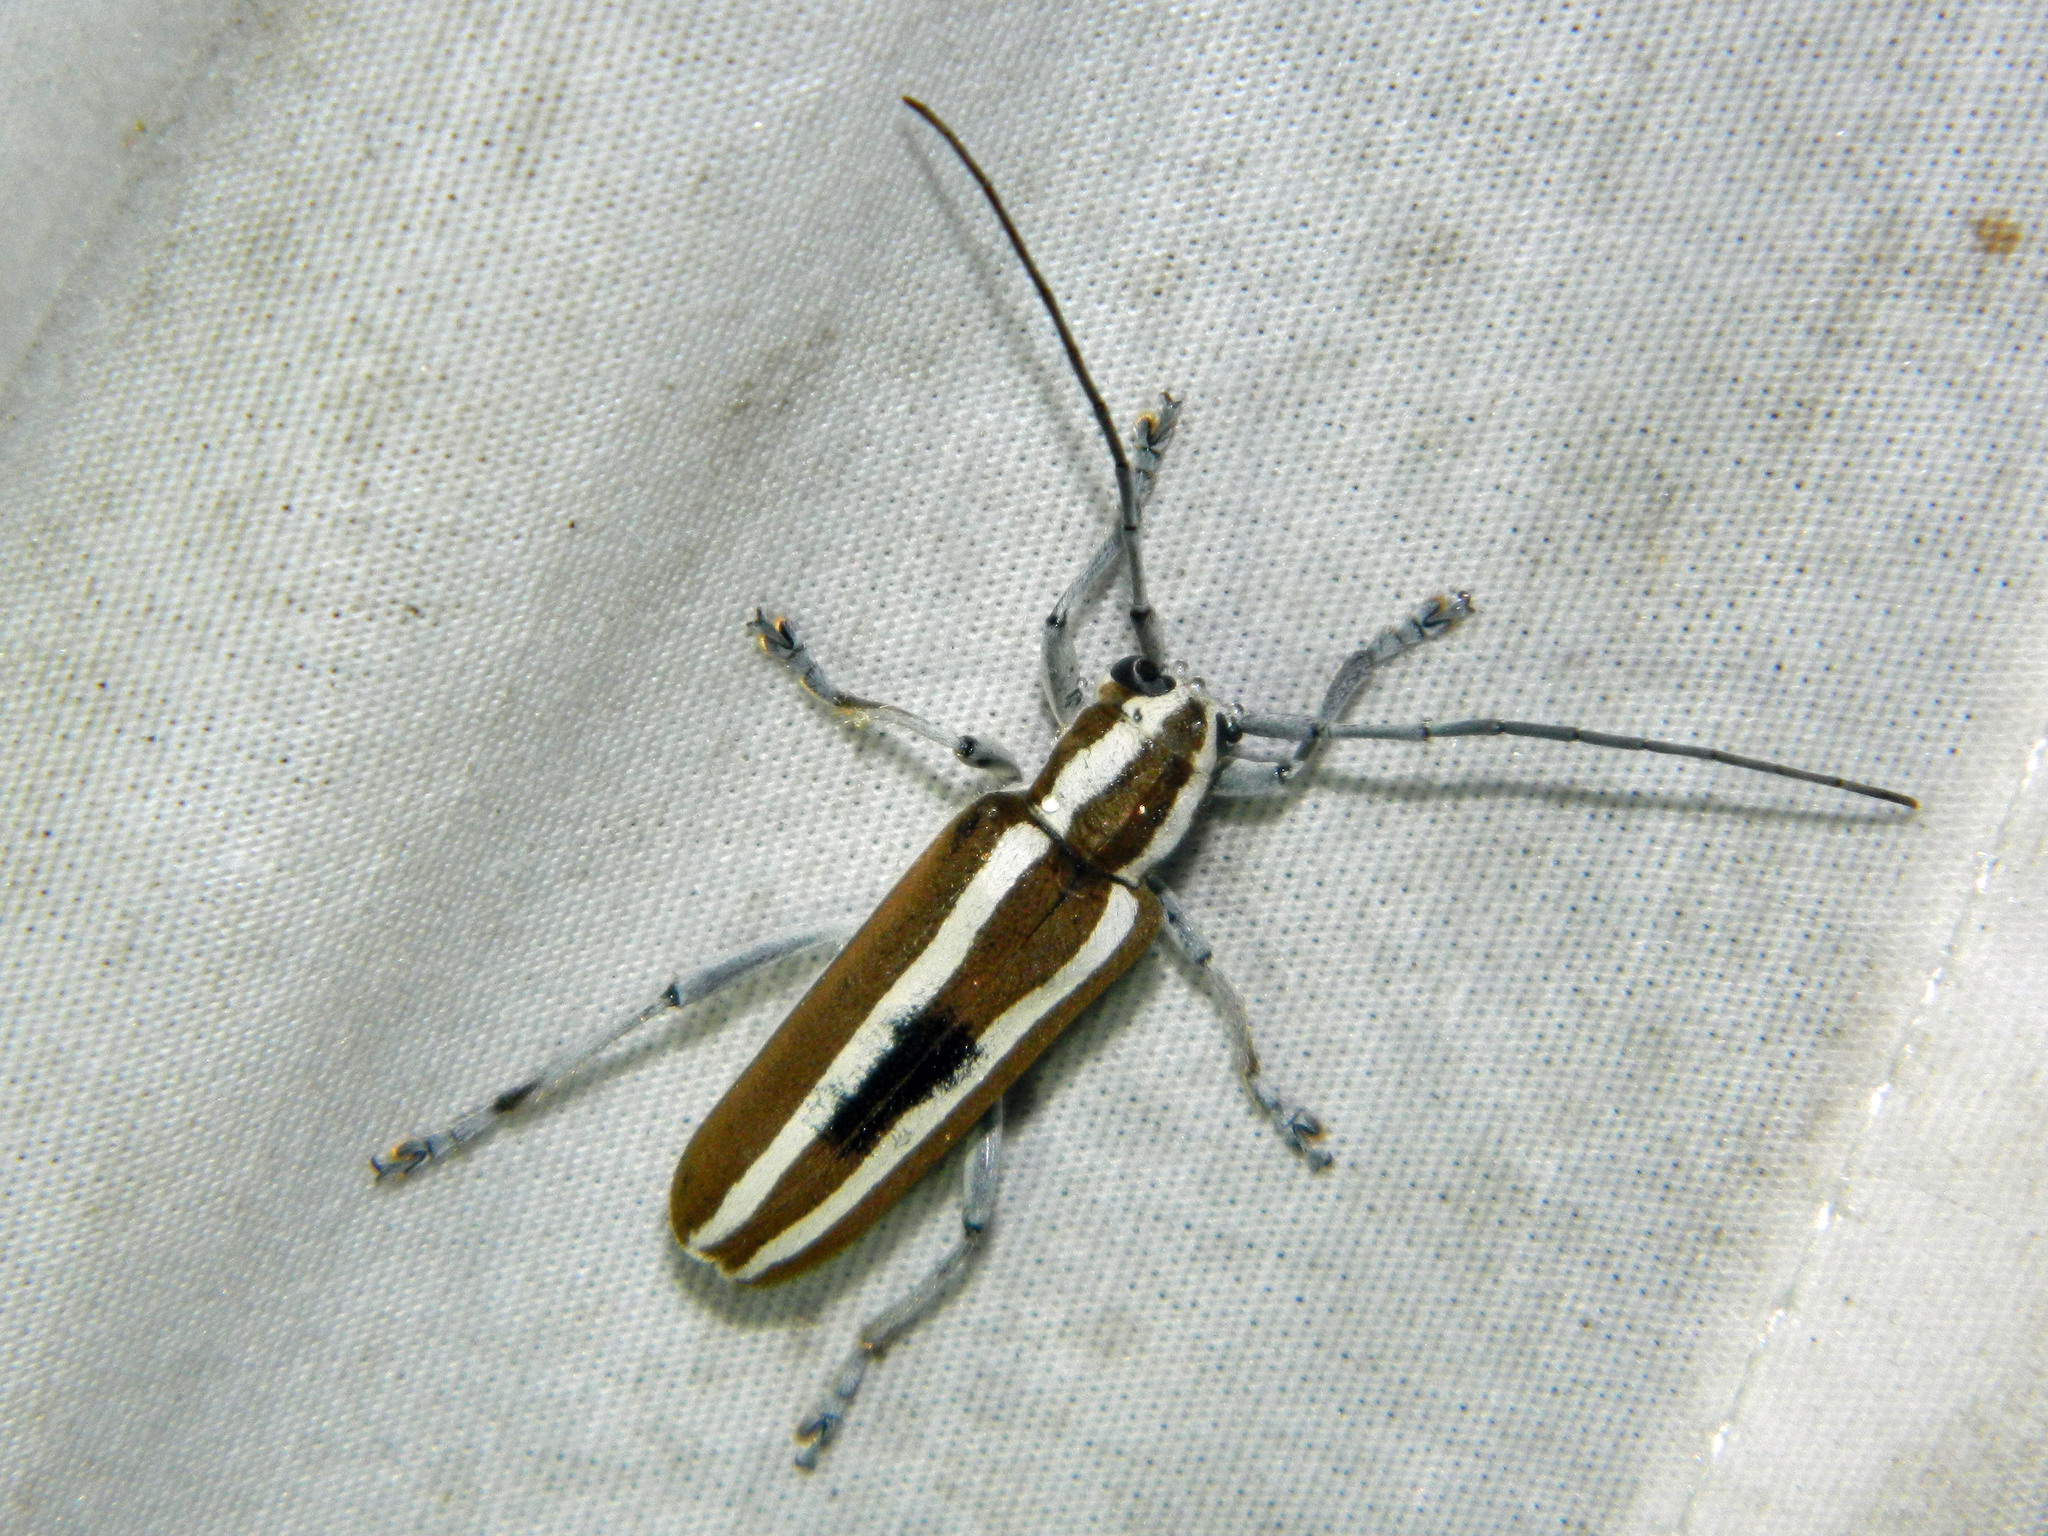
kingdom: Animalia
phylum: Arthropoda
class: Insecta
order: Coleoptera
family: Cerambycidae
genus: Saperda
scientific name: Saperda candida
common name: Round-headed borer
